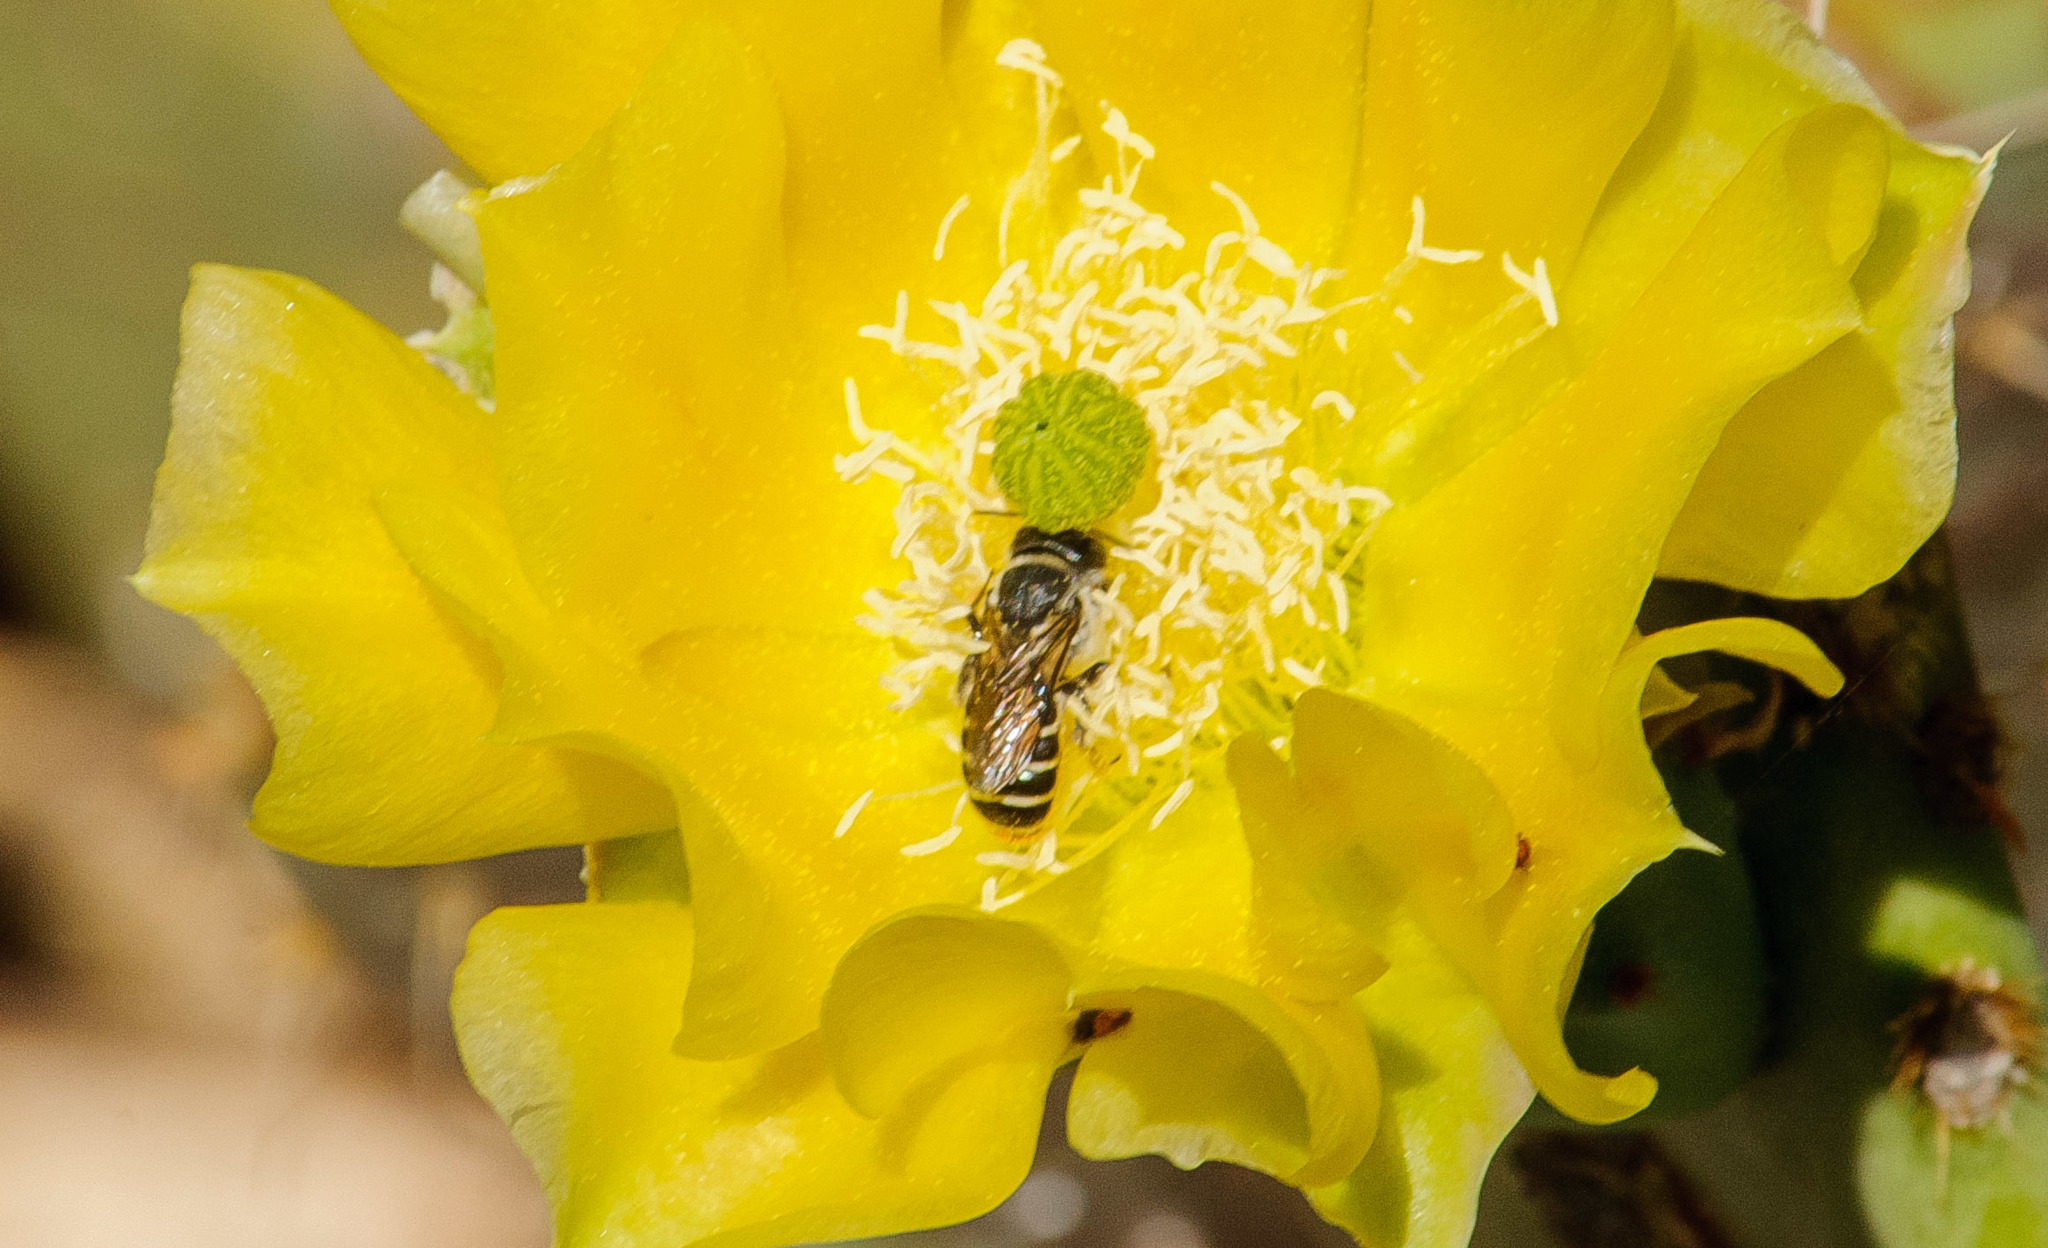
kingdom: Animalia
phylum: Arthropoda
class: Insecta
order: Hymenoptera
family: Megachilidae
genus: Lithurgopsis
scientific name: Lithurgopsis apicalis
